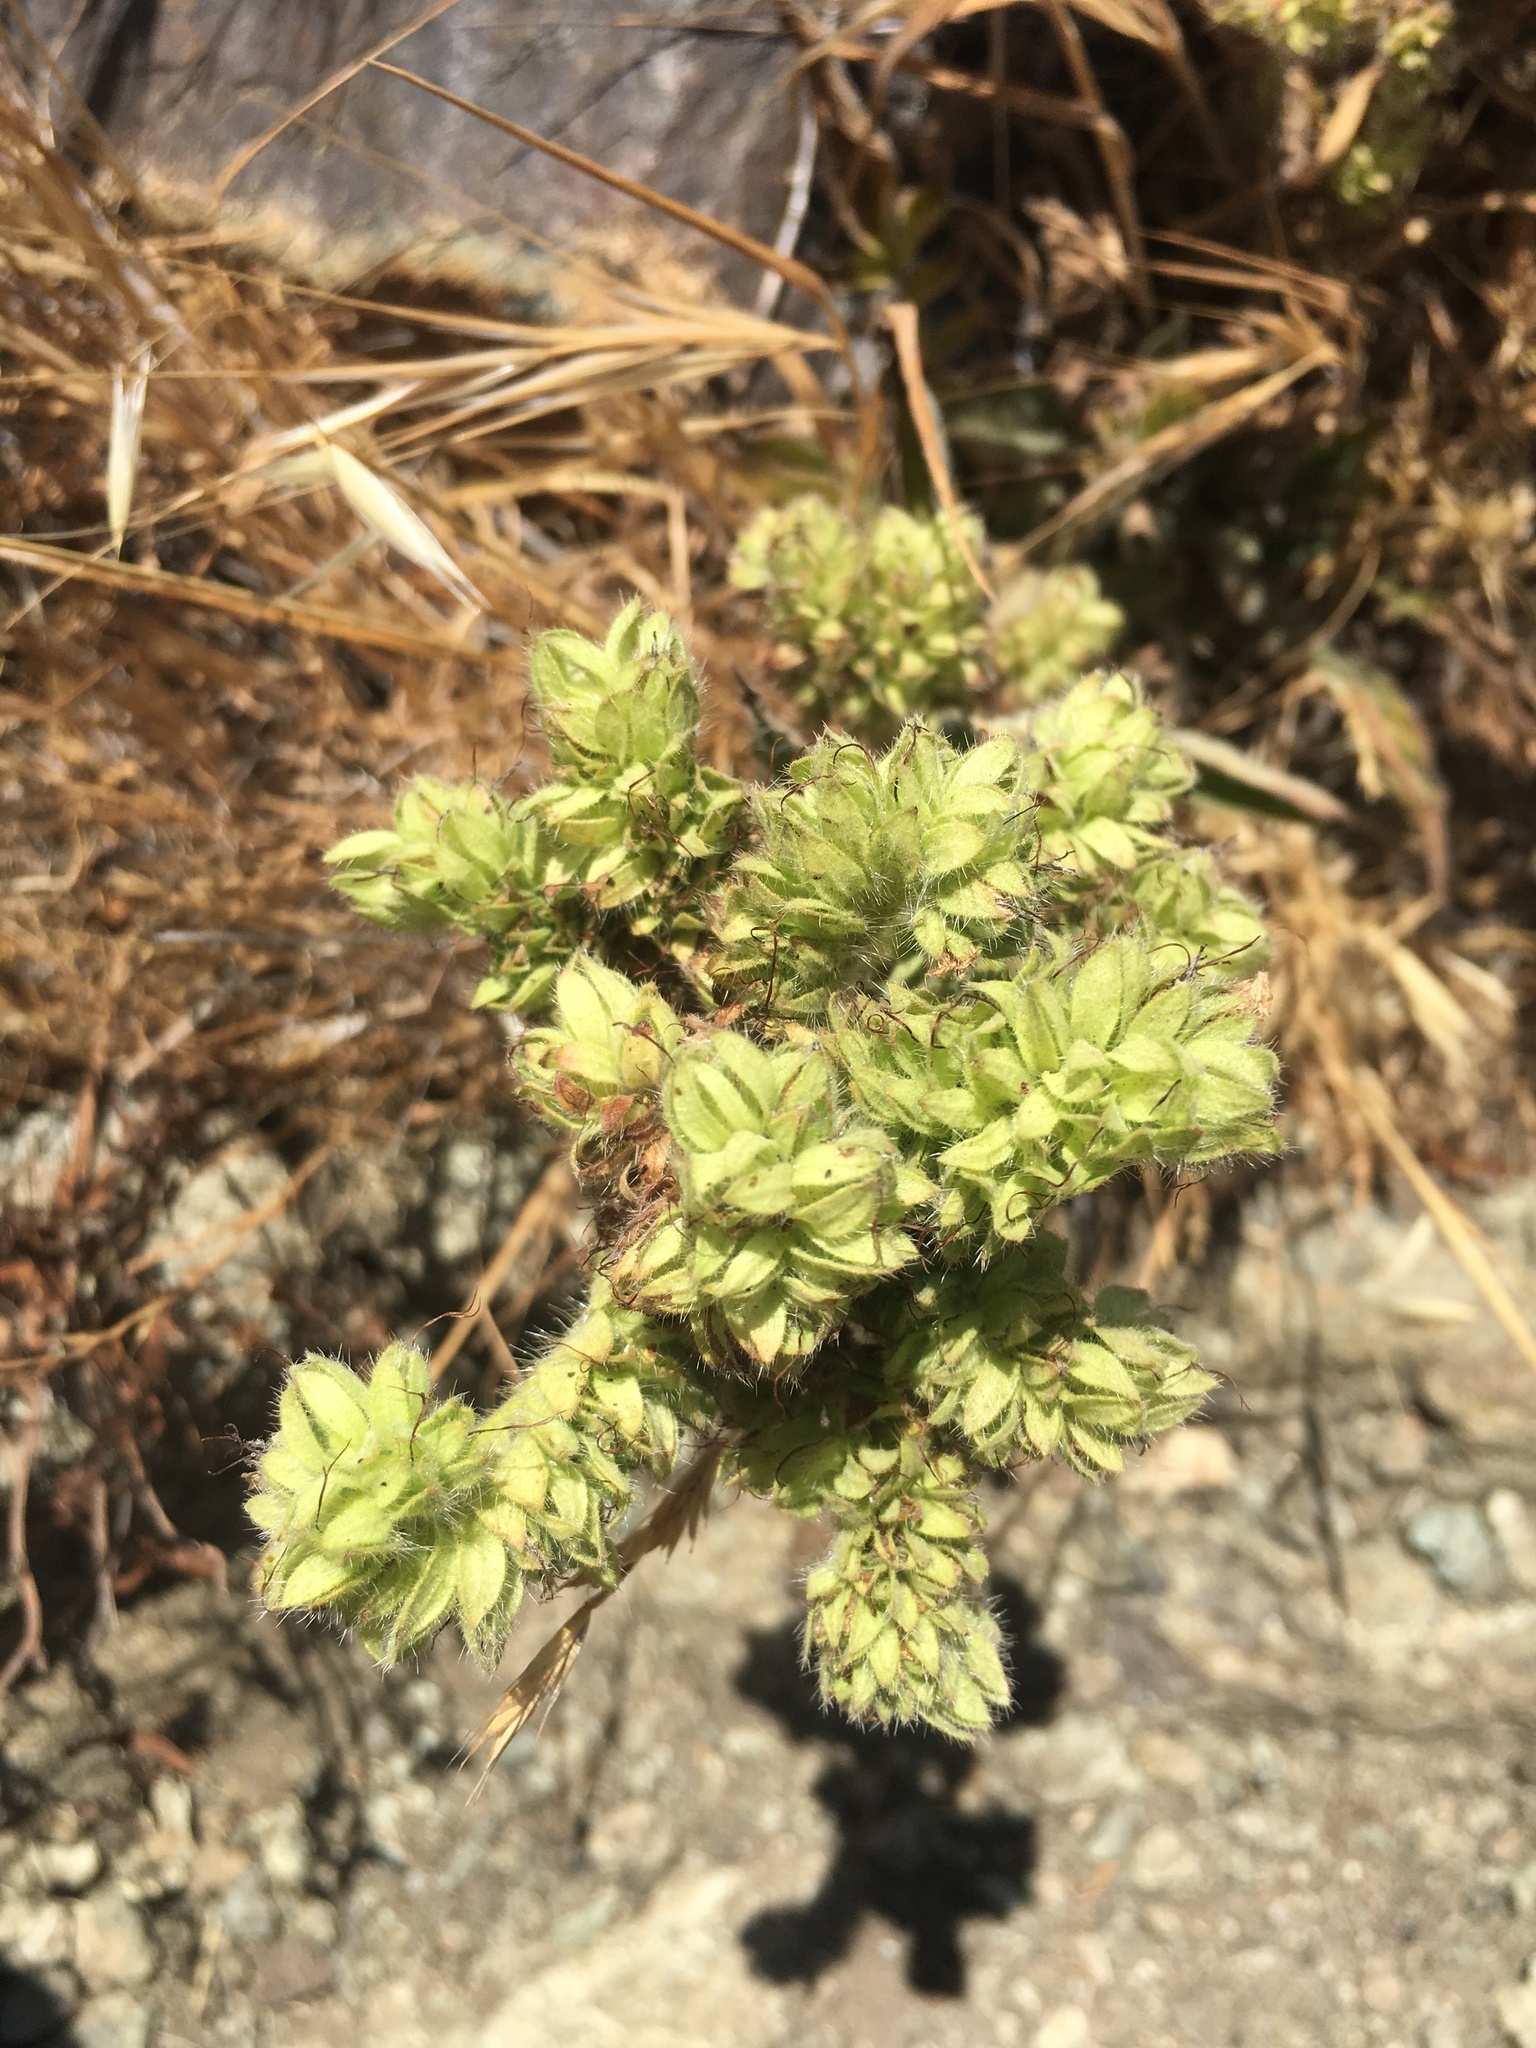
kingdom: Plantae
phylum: Tracheophyta
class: Magnoliopsida
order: Boraginales
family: Hydrophyllaceae
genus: Phacelia
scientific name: Phacelia imbricata
